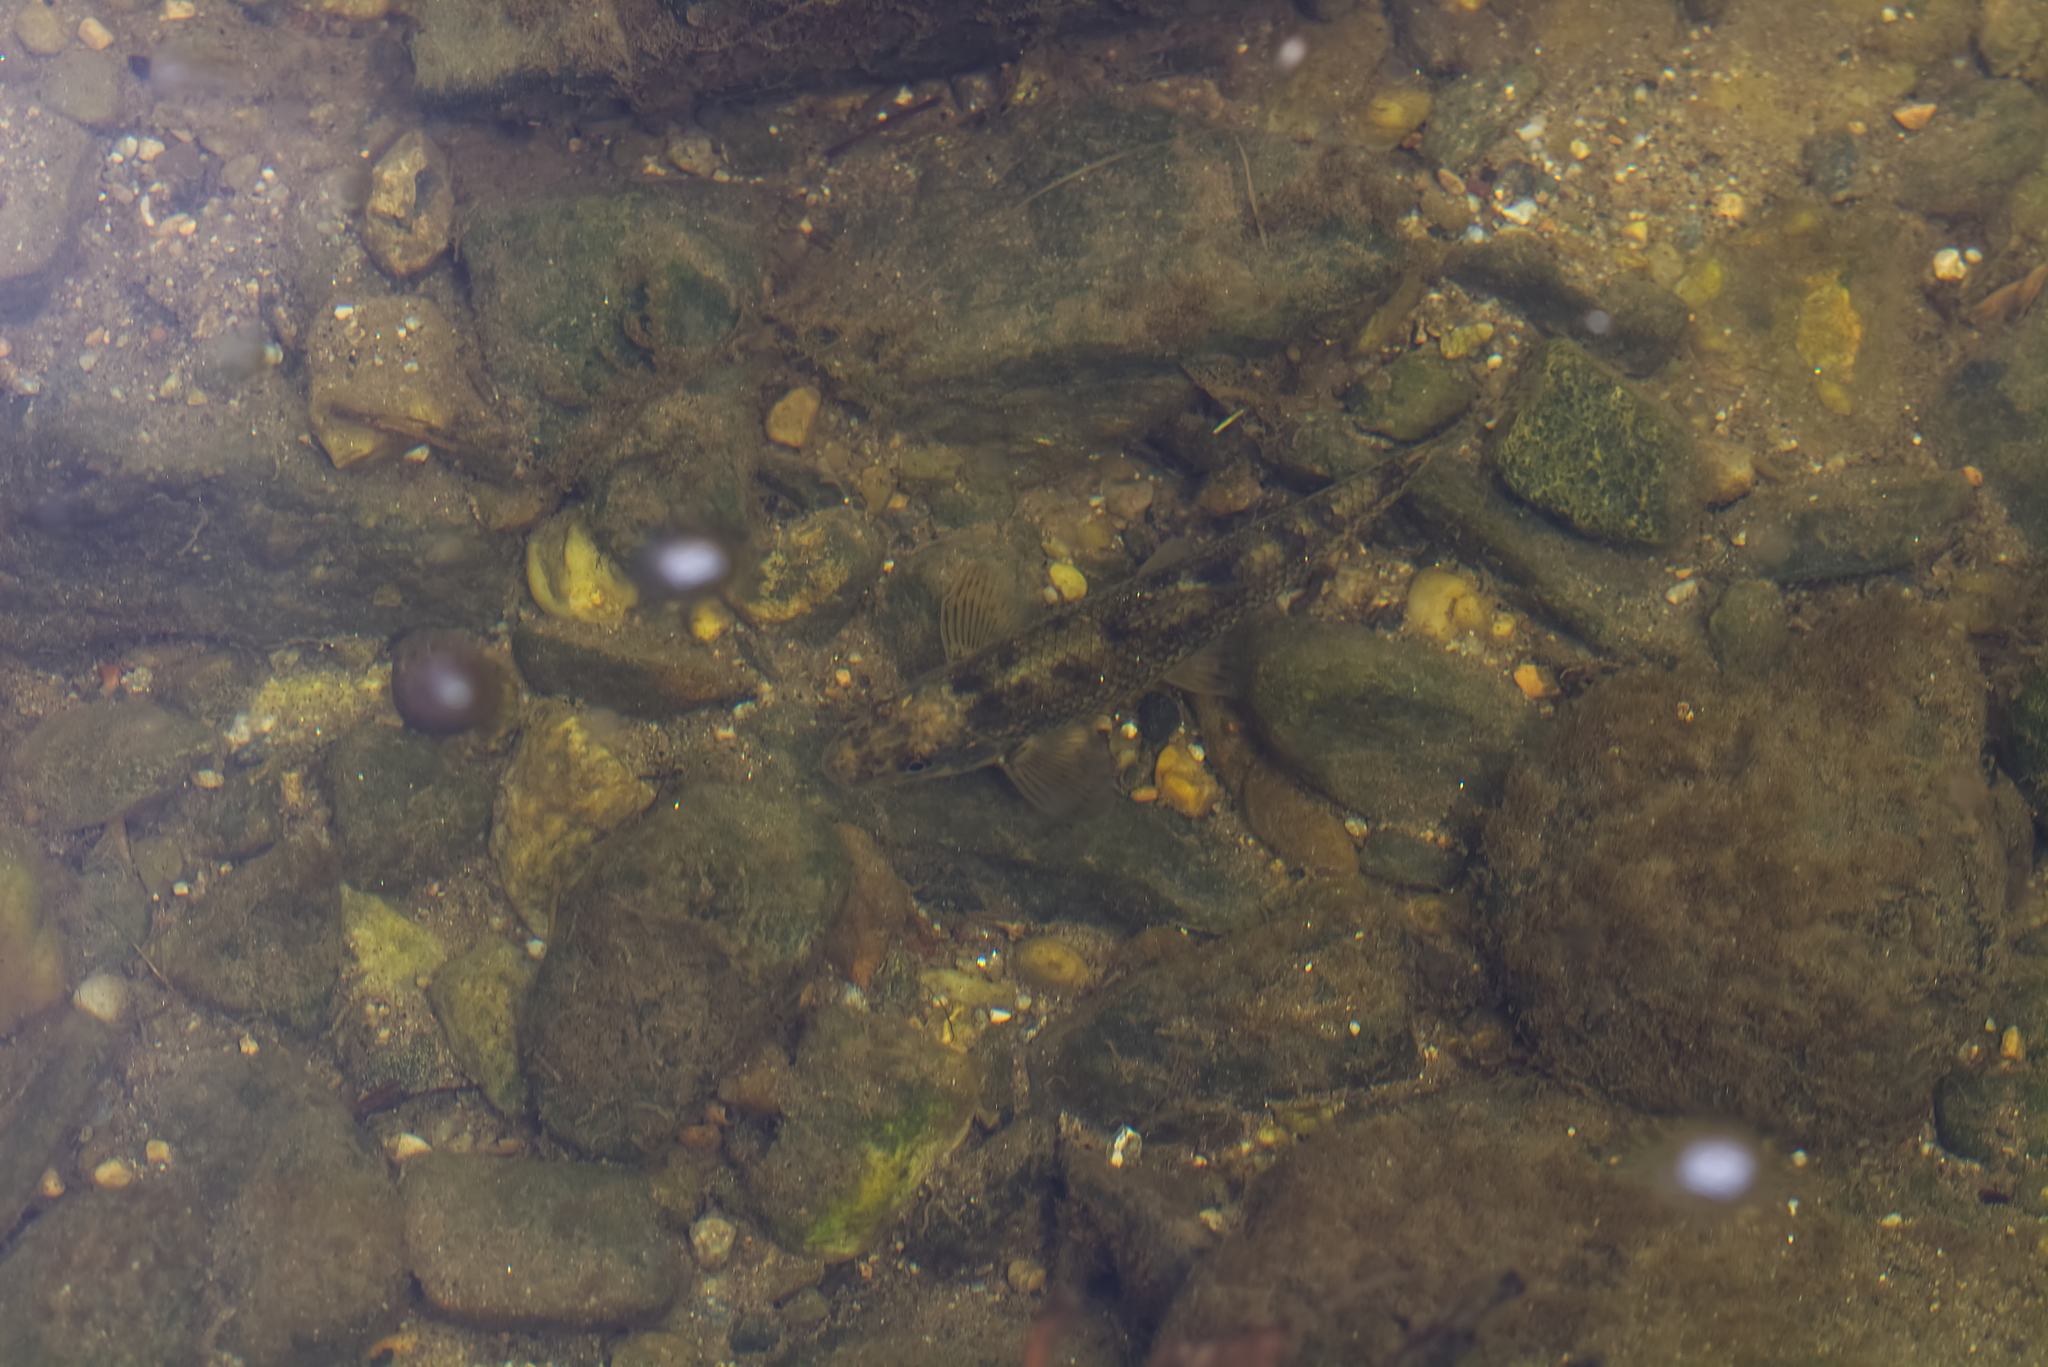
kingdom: Animalia
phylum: Chordata
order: Cypriniformes
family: Cyprinidae
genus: Gobio
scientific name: Gobio gobio
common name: Gudgeon
